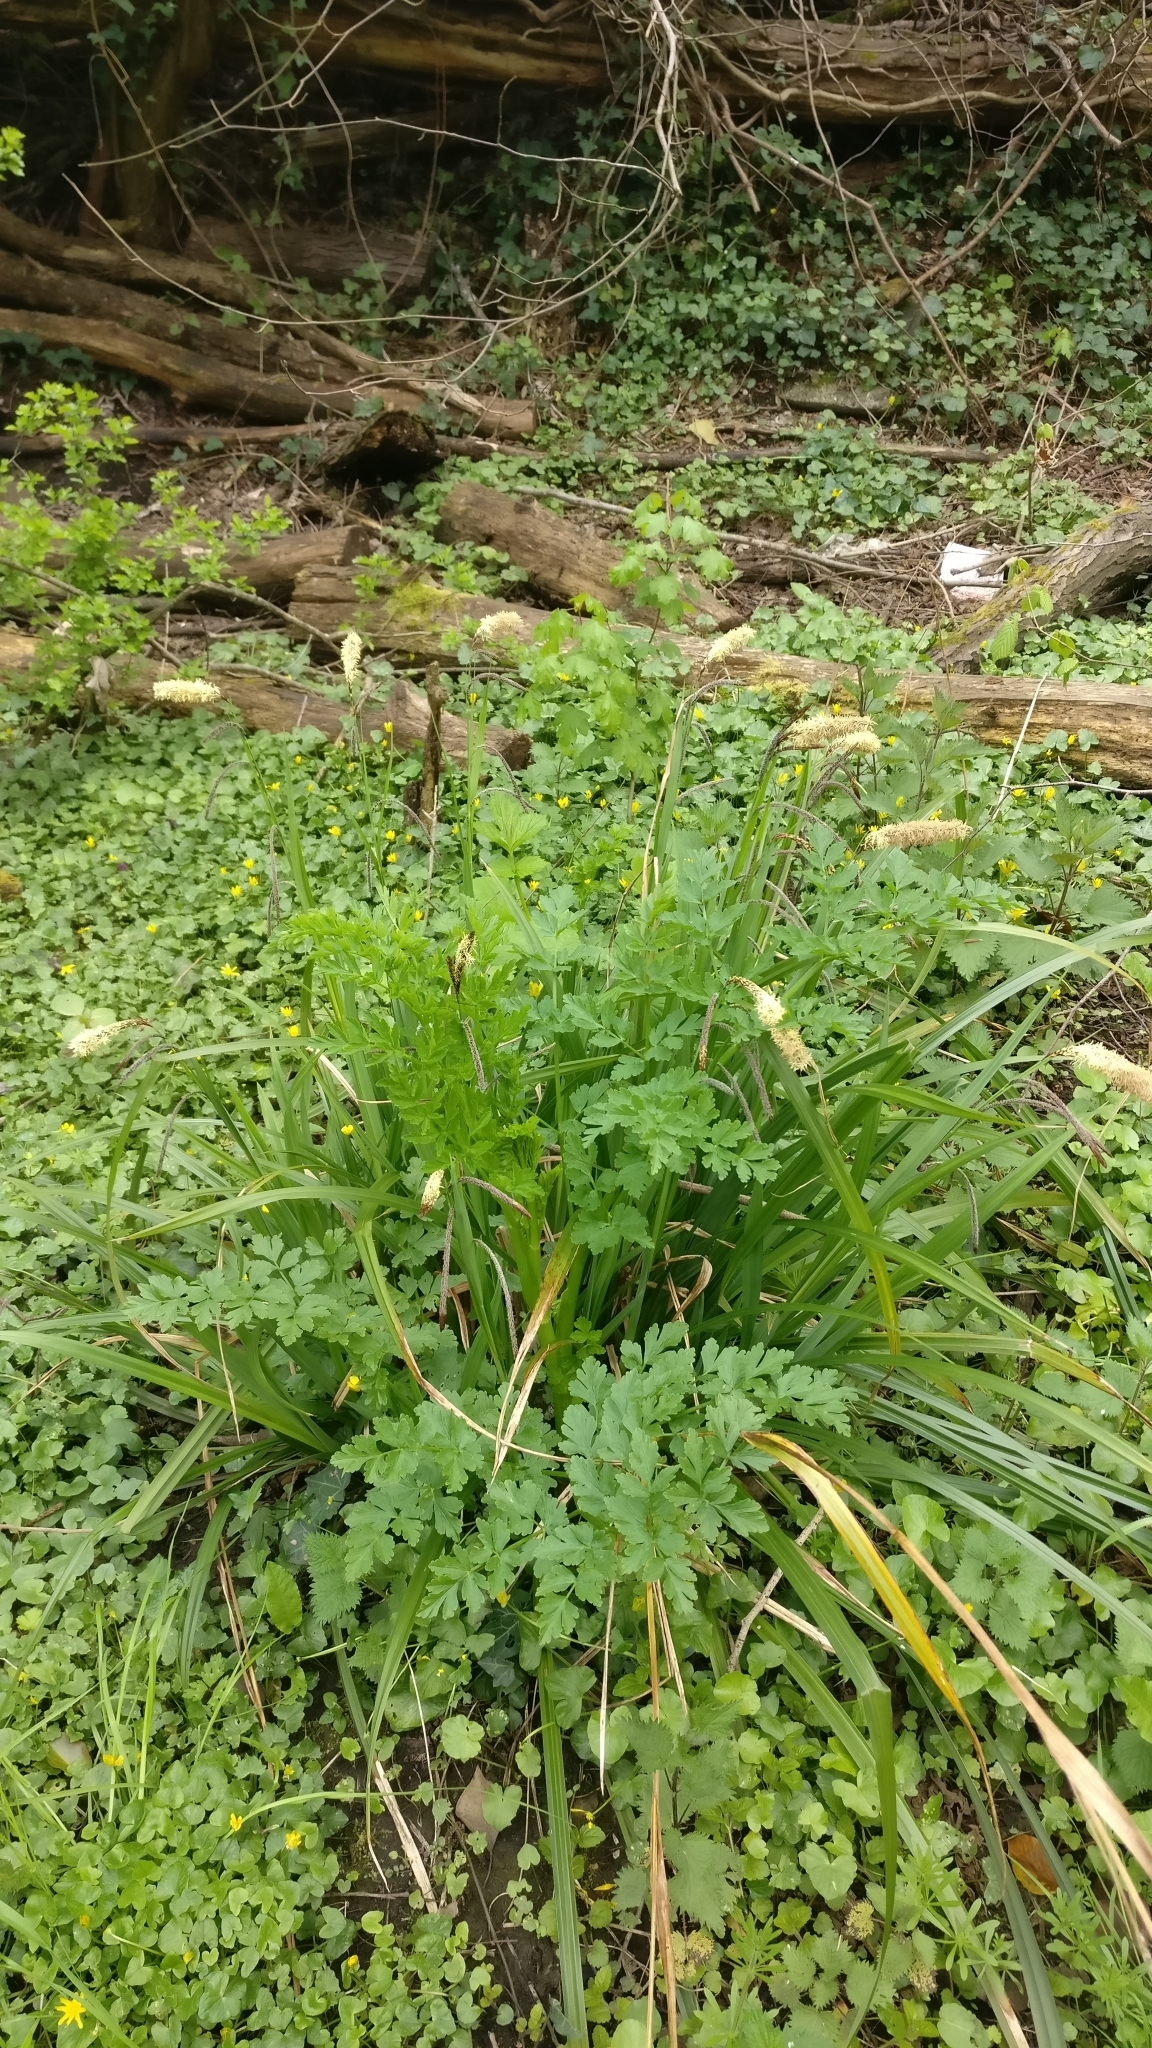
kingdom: Plantae
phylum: Tracheophyta
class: Liliopsida
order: Poales
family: Cyperaceae
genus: Carex
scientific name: Carex pendula
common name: Pendulous sedge
